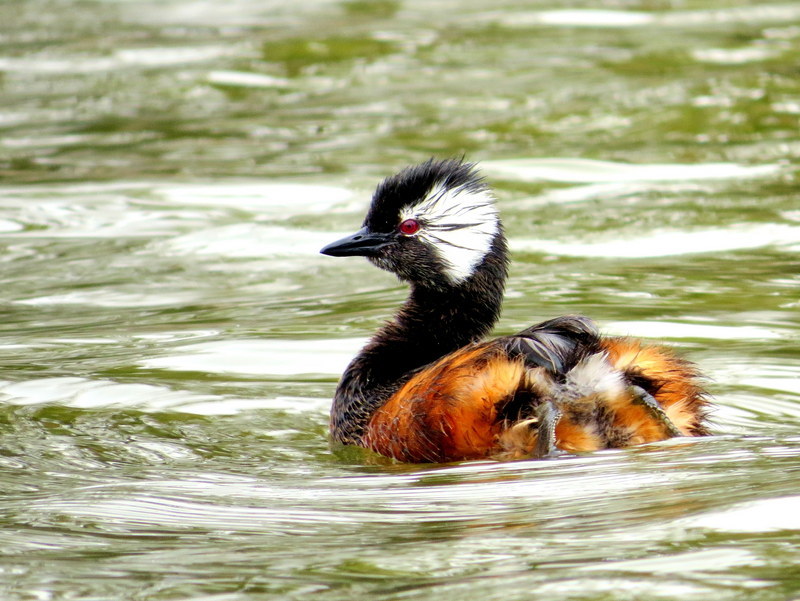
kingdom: Animalia
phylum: Chordata
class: Aves
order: Podicipediformes
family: Podicipedidae
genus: Rollandia
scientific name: Rollandia rolland
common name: White-tufted grebe
